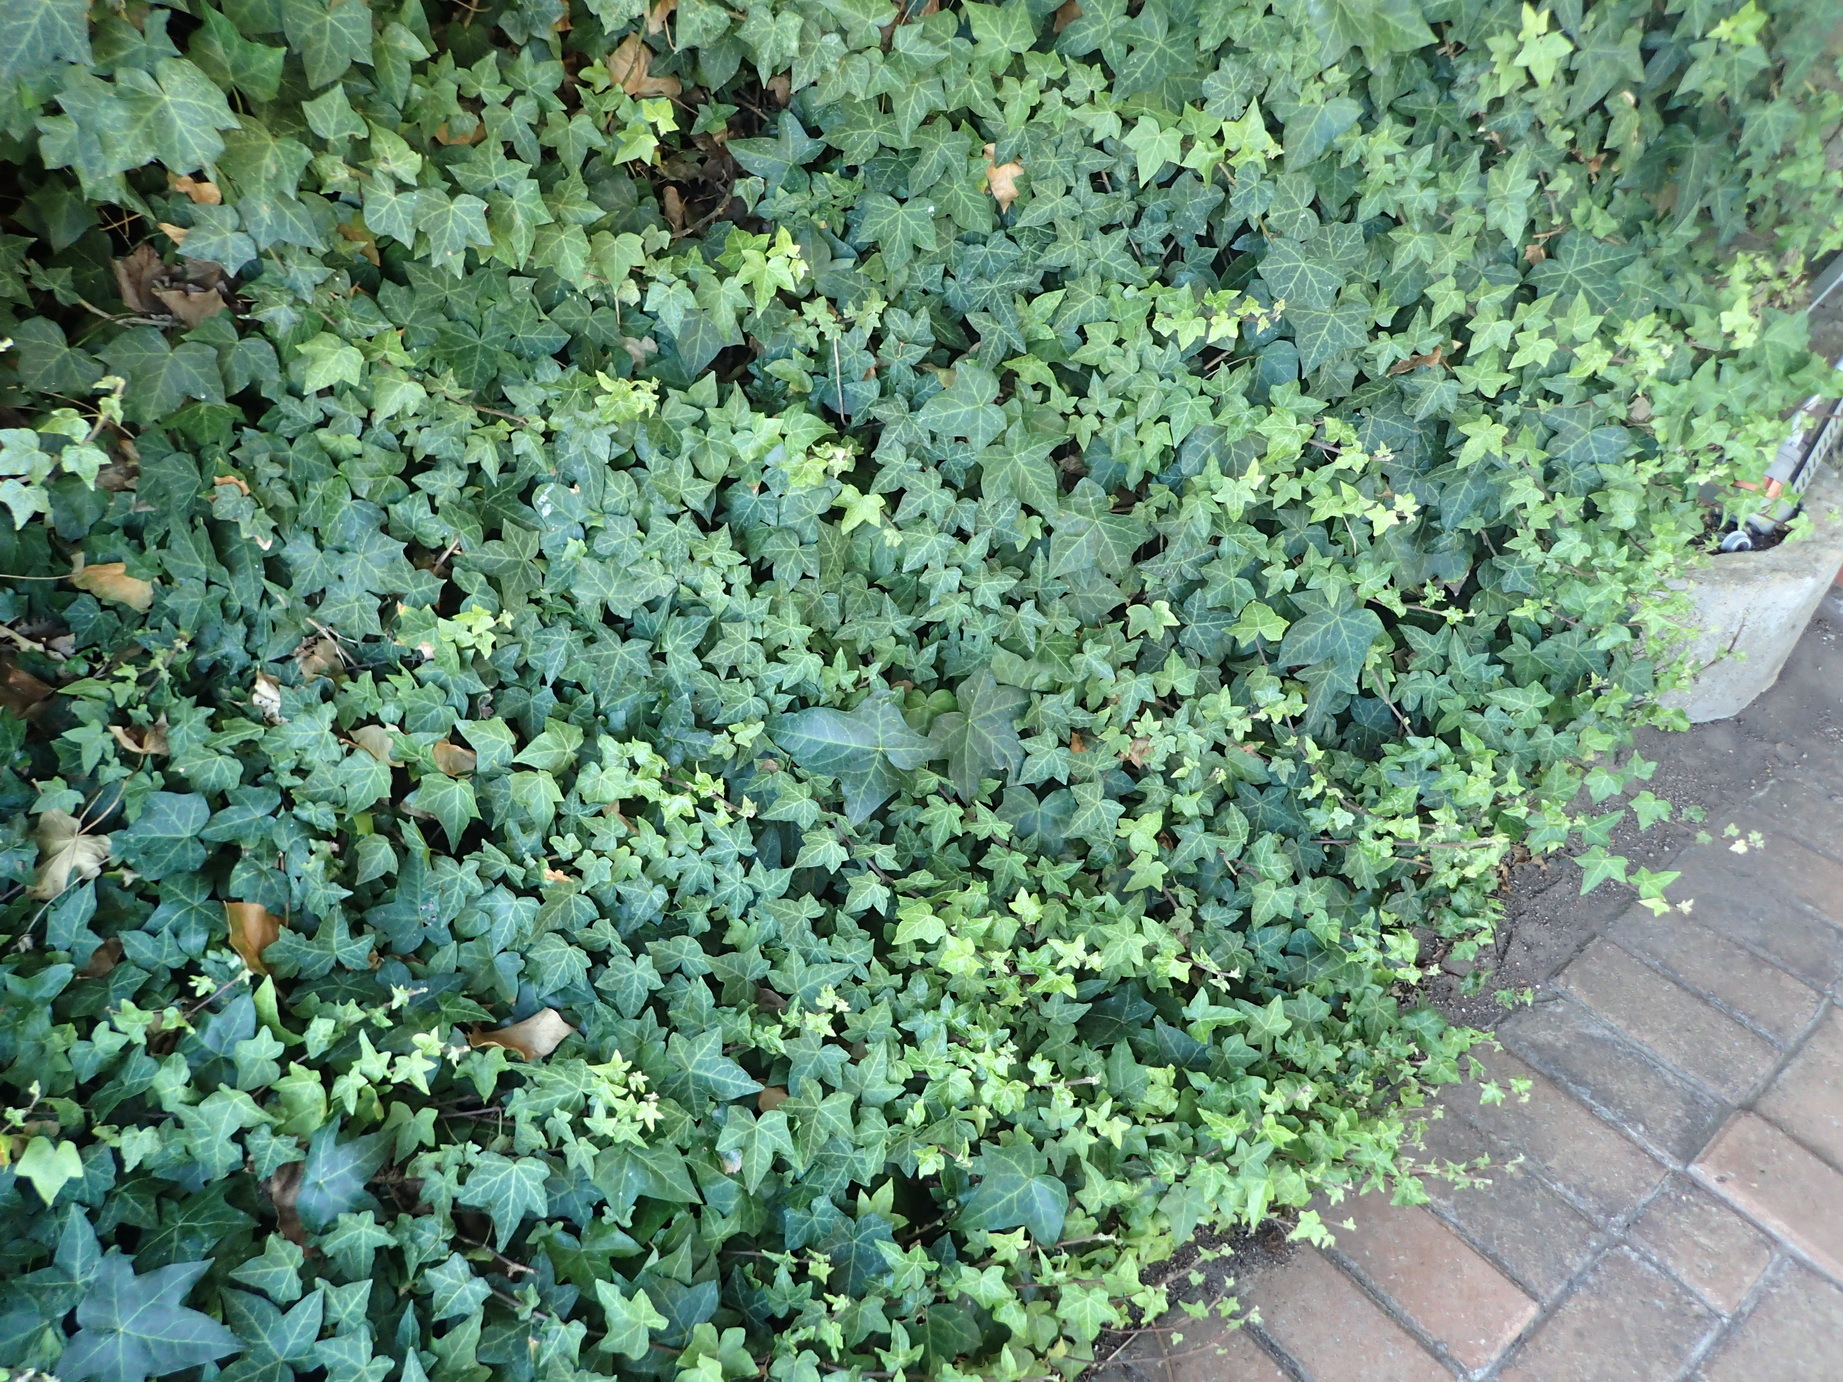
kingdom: Plantae
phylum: Tracheophyta
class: Magnoliopsida
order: Apiales
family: Araliaceae
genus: Hedera
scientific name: Hedera helix
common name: Ivy
